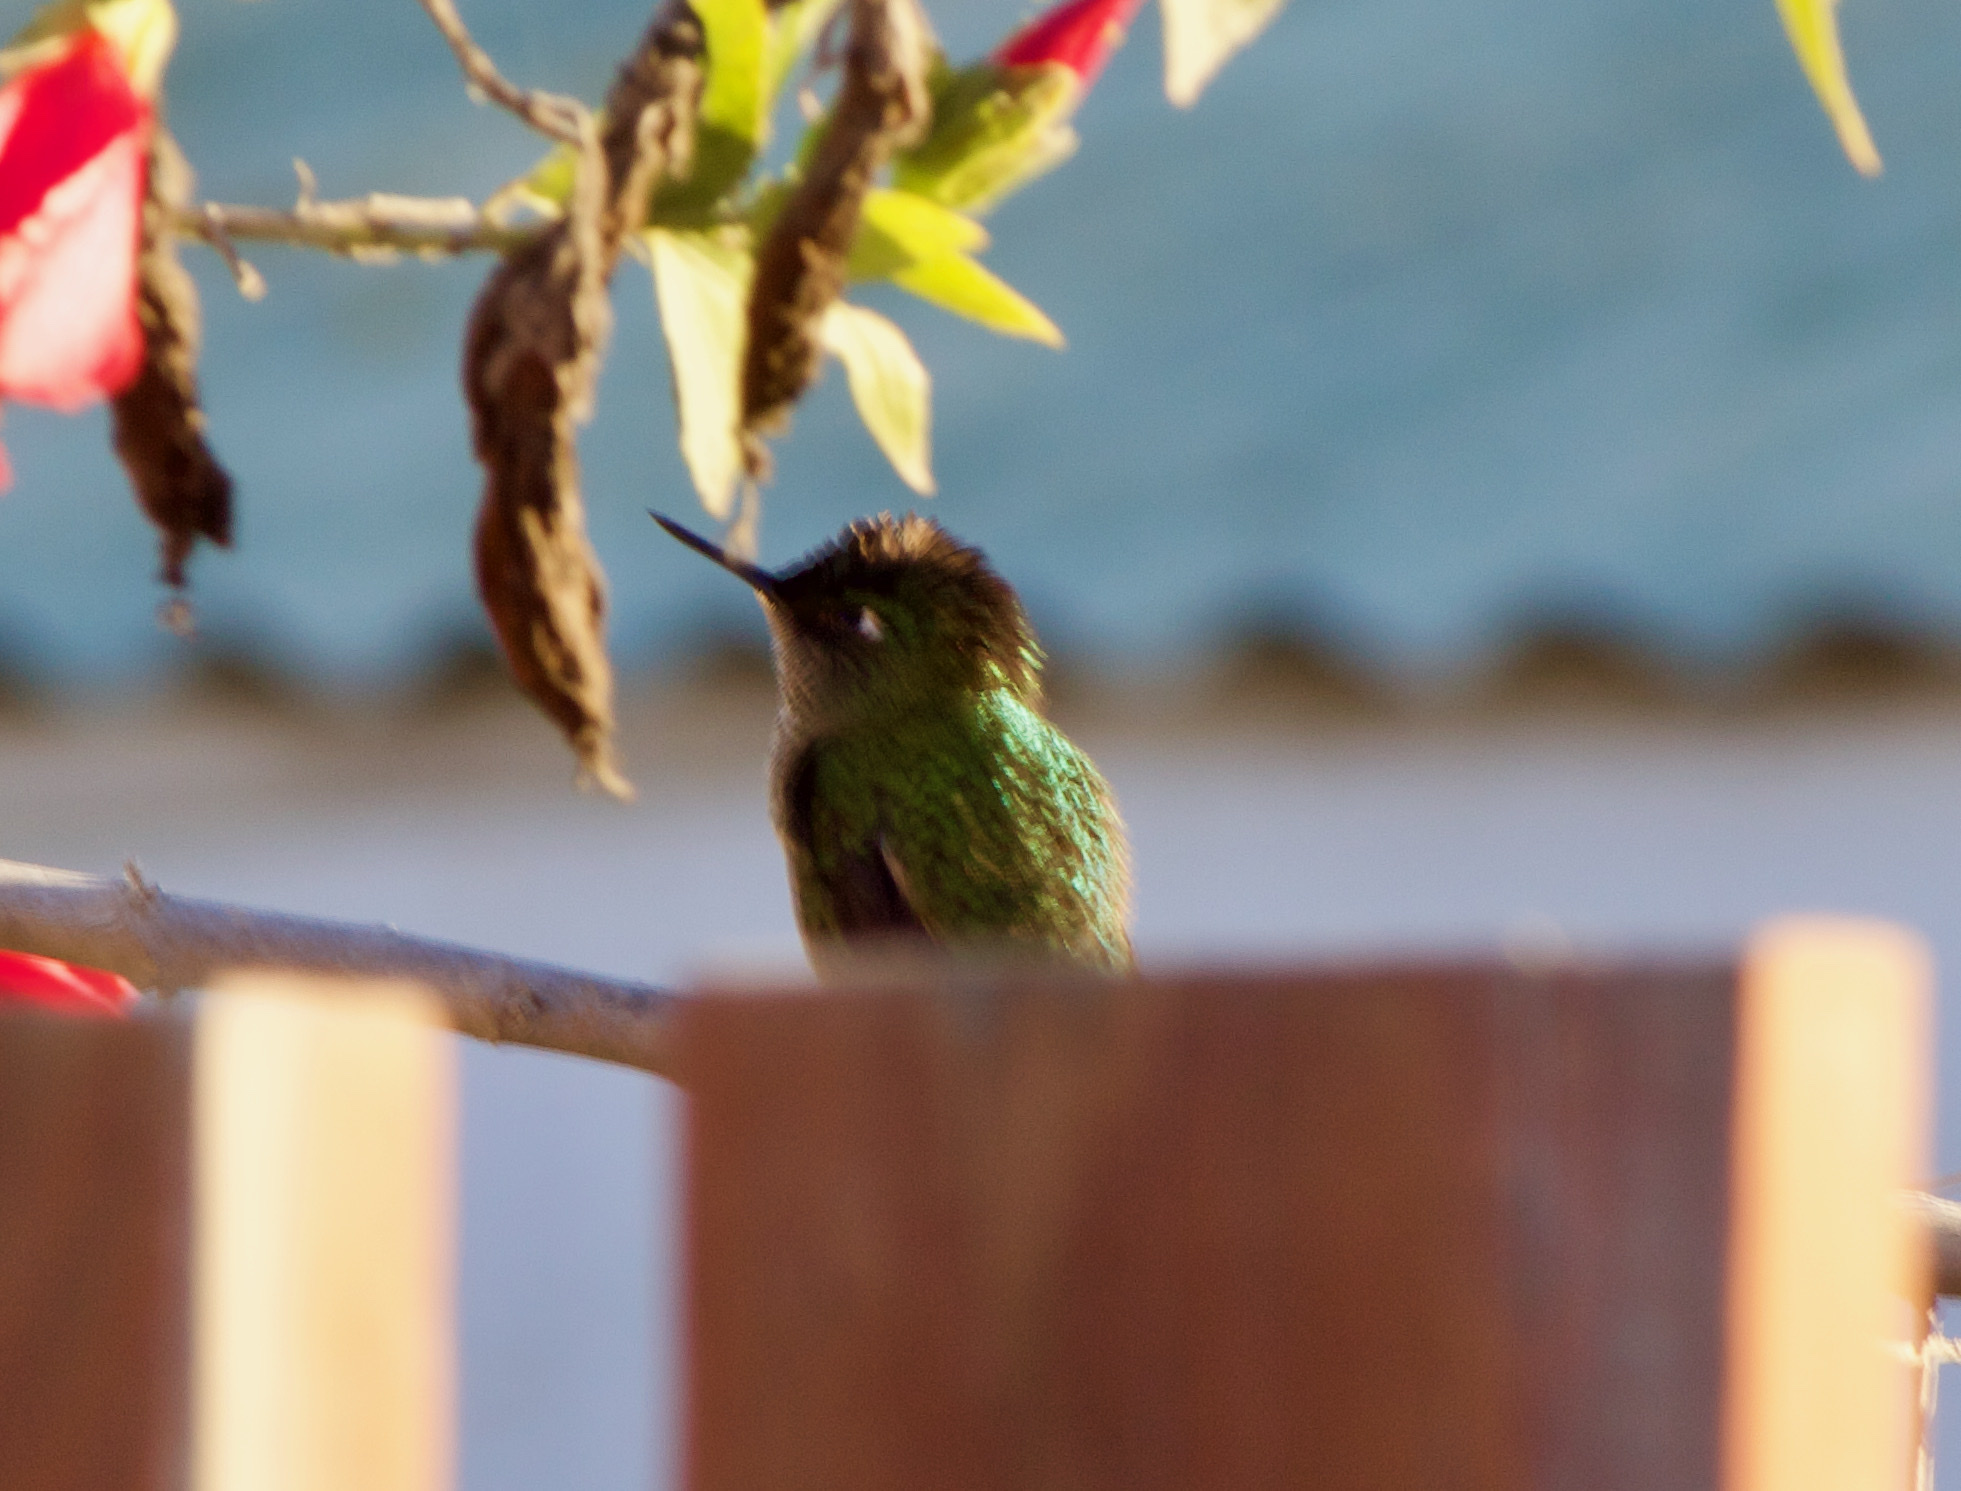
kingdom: Animalia
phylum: Chordata
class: Aves
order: Apodiformes
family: Trochilidae
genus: Sephanoides
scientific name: Sephanoides sephaniodes
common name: Green-backed firecrown
